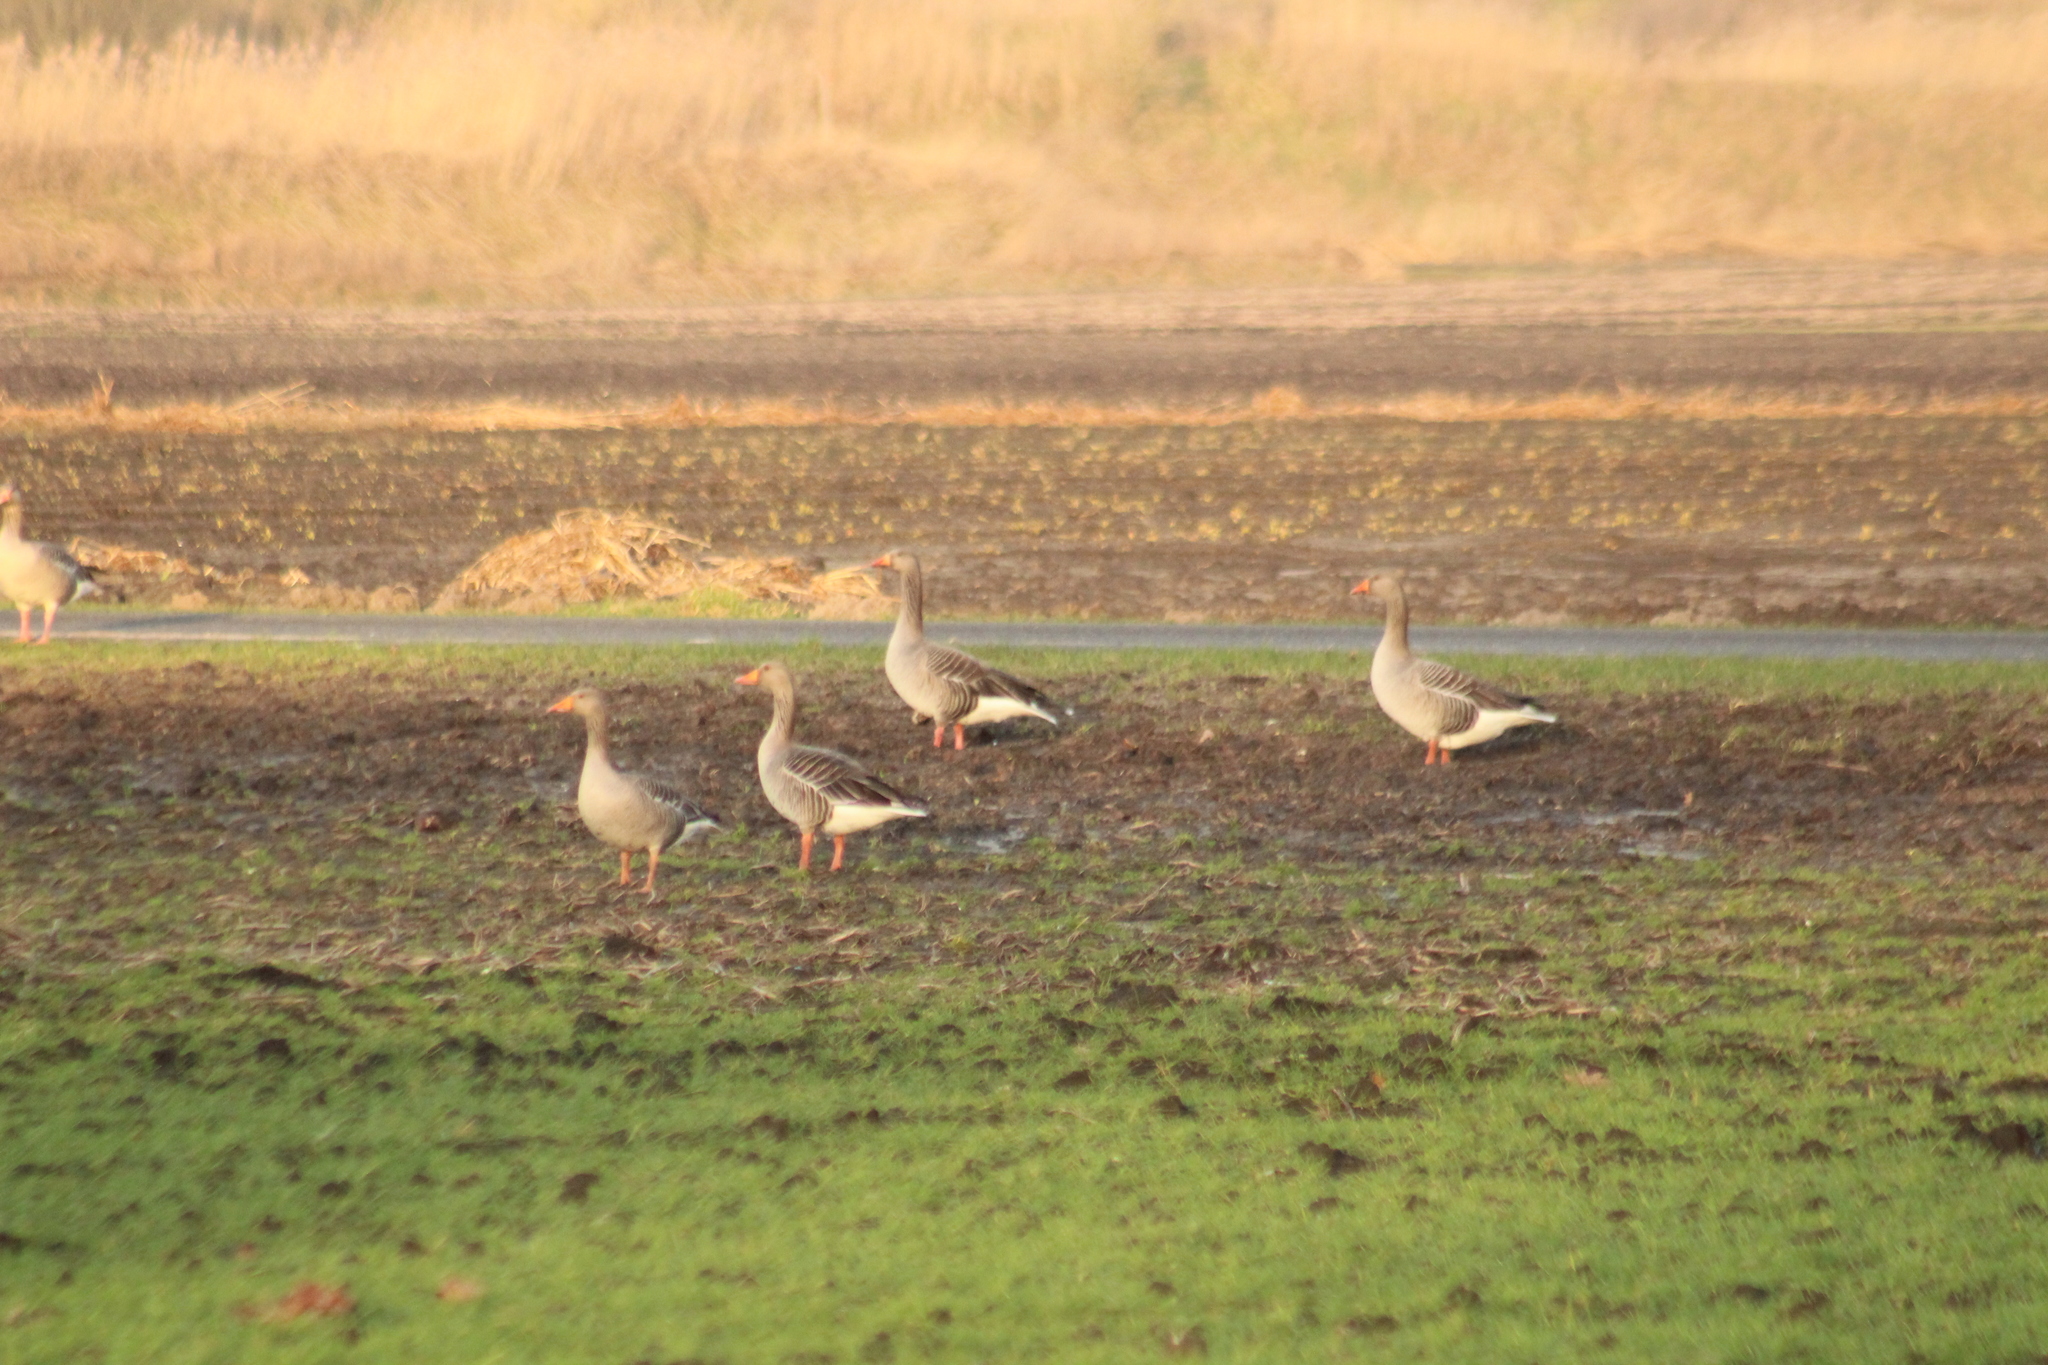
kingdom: Animalia
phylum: Chordata
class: Aves
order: Anseriformes
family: Anatidae
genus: Anser
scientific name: Anser anser
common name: Greylag goose
